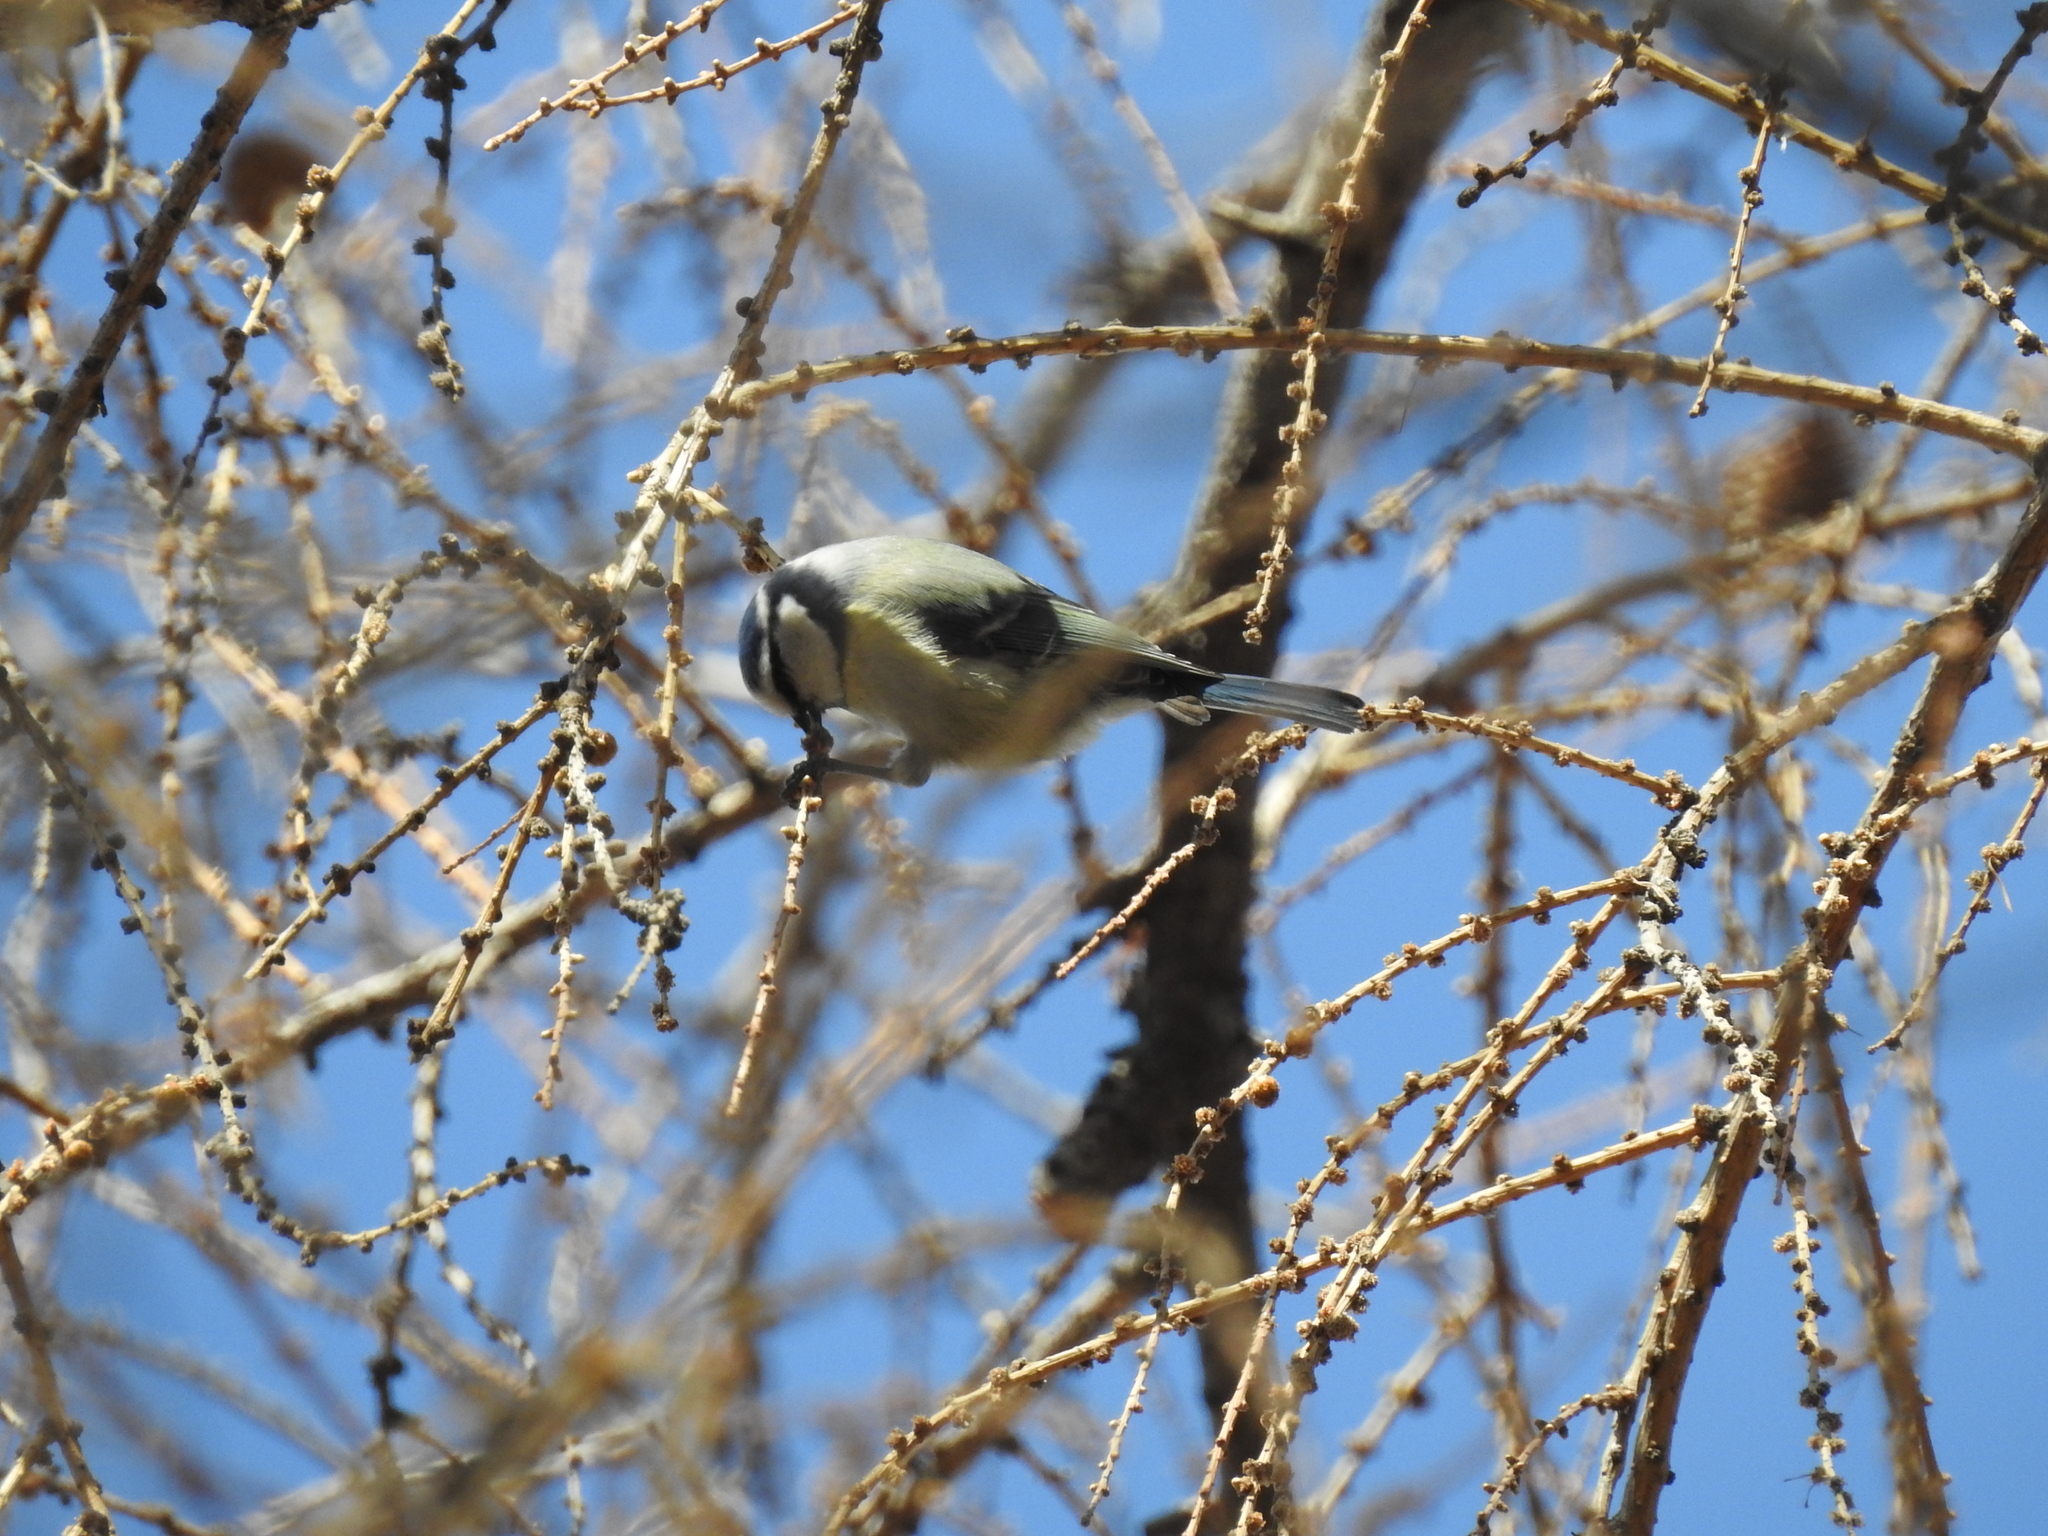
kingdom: Animalia
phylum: Chordata
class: Aves
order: Passeriformes
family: Paridae
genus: Cyanistes
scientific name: Cyanistes caeruleus
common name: Eurasian blue tit
